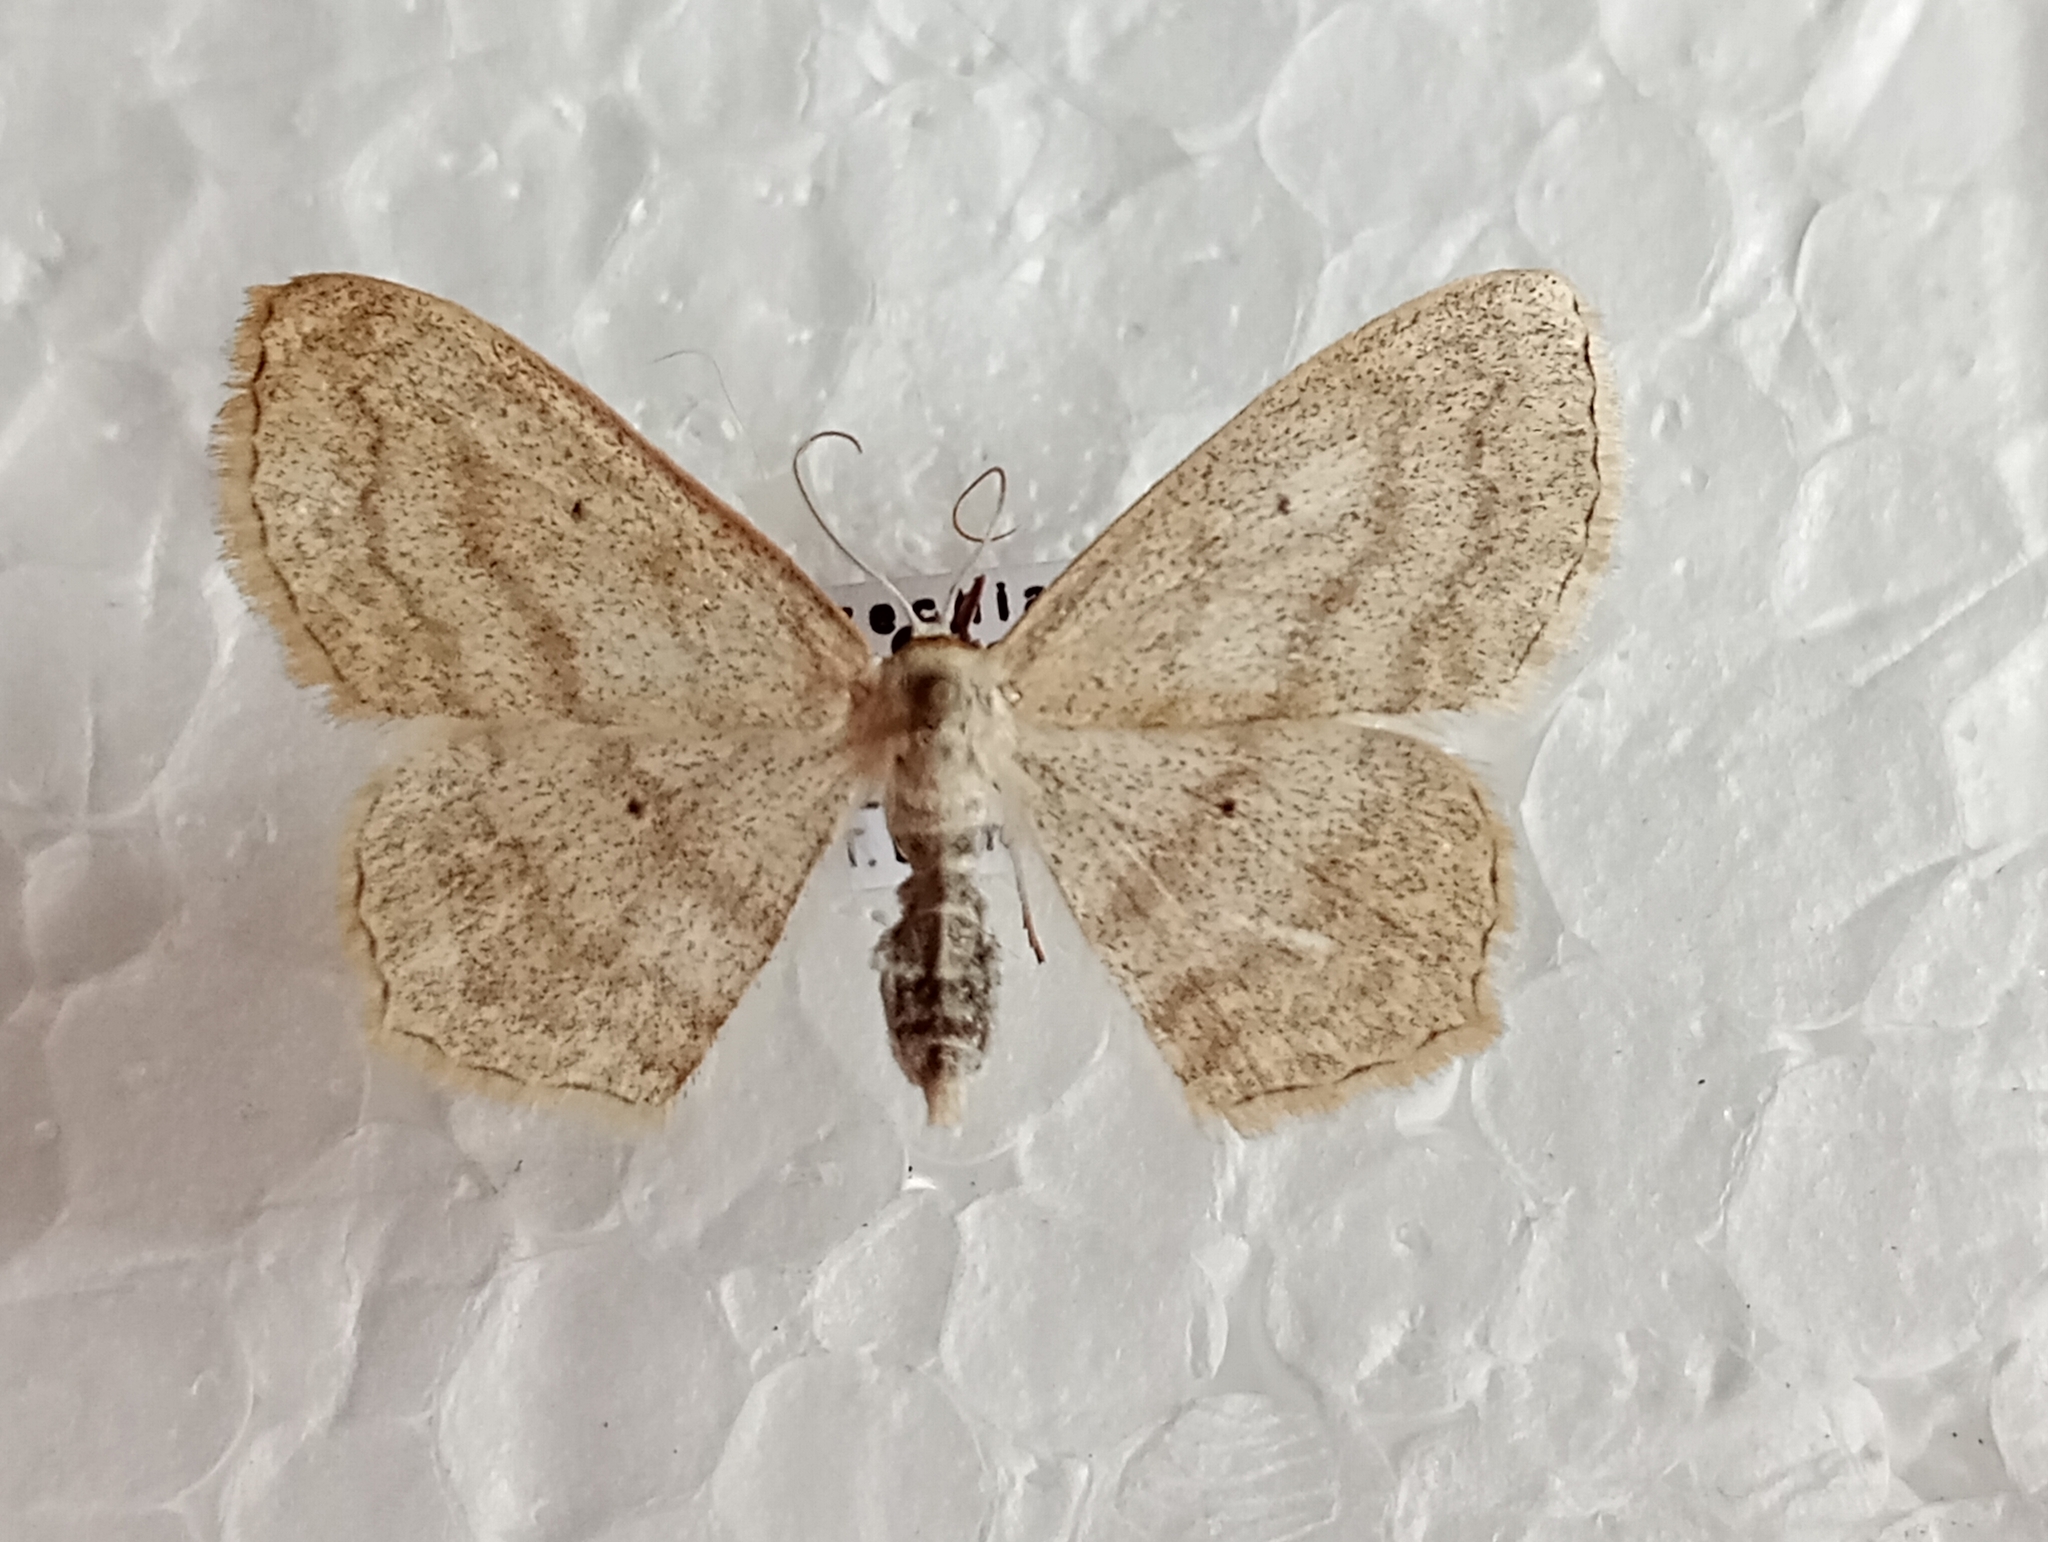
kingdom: Animalia
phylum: Arthropoda
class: Insecta
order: Lepidoptera
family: Geometridae
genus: Scopula
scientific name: Scopula nigropunctata
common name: Sub-angled wave
